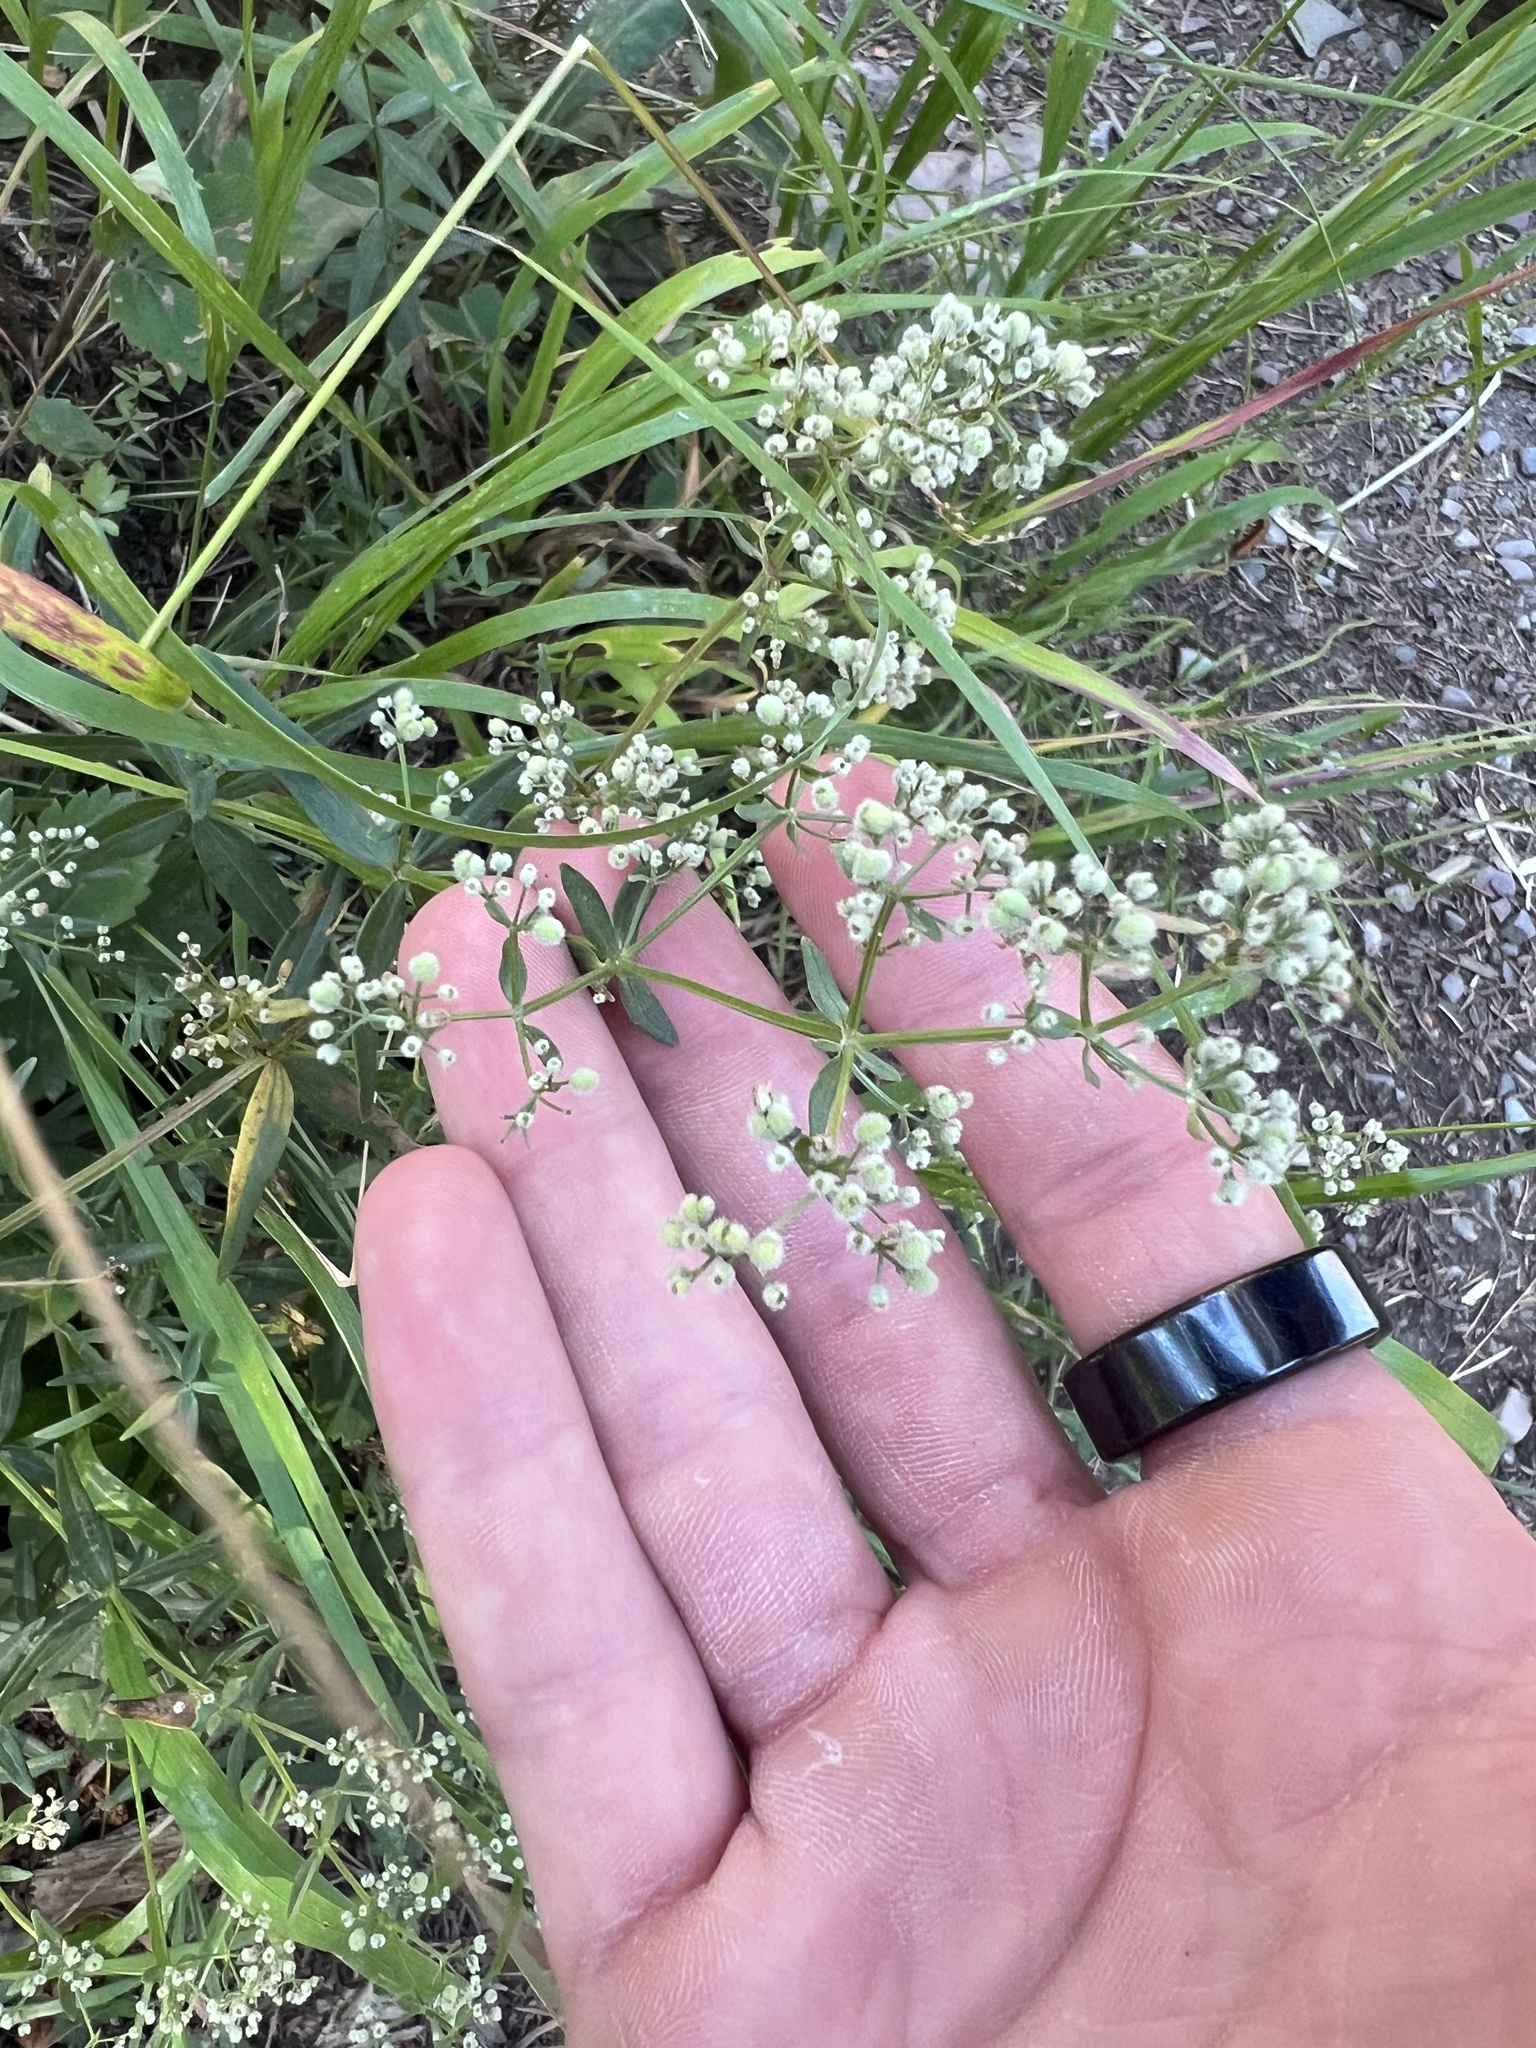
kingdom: Plantae
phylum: Tracheophyta
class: Magnoliopsida
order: Gentianales
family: Rubiaceae
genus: Galium
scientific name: Galium boreale
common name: Northern bedstraw
